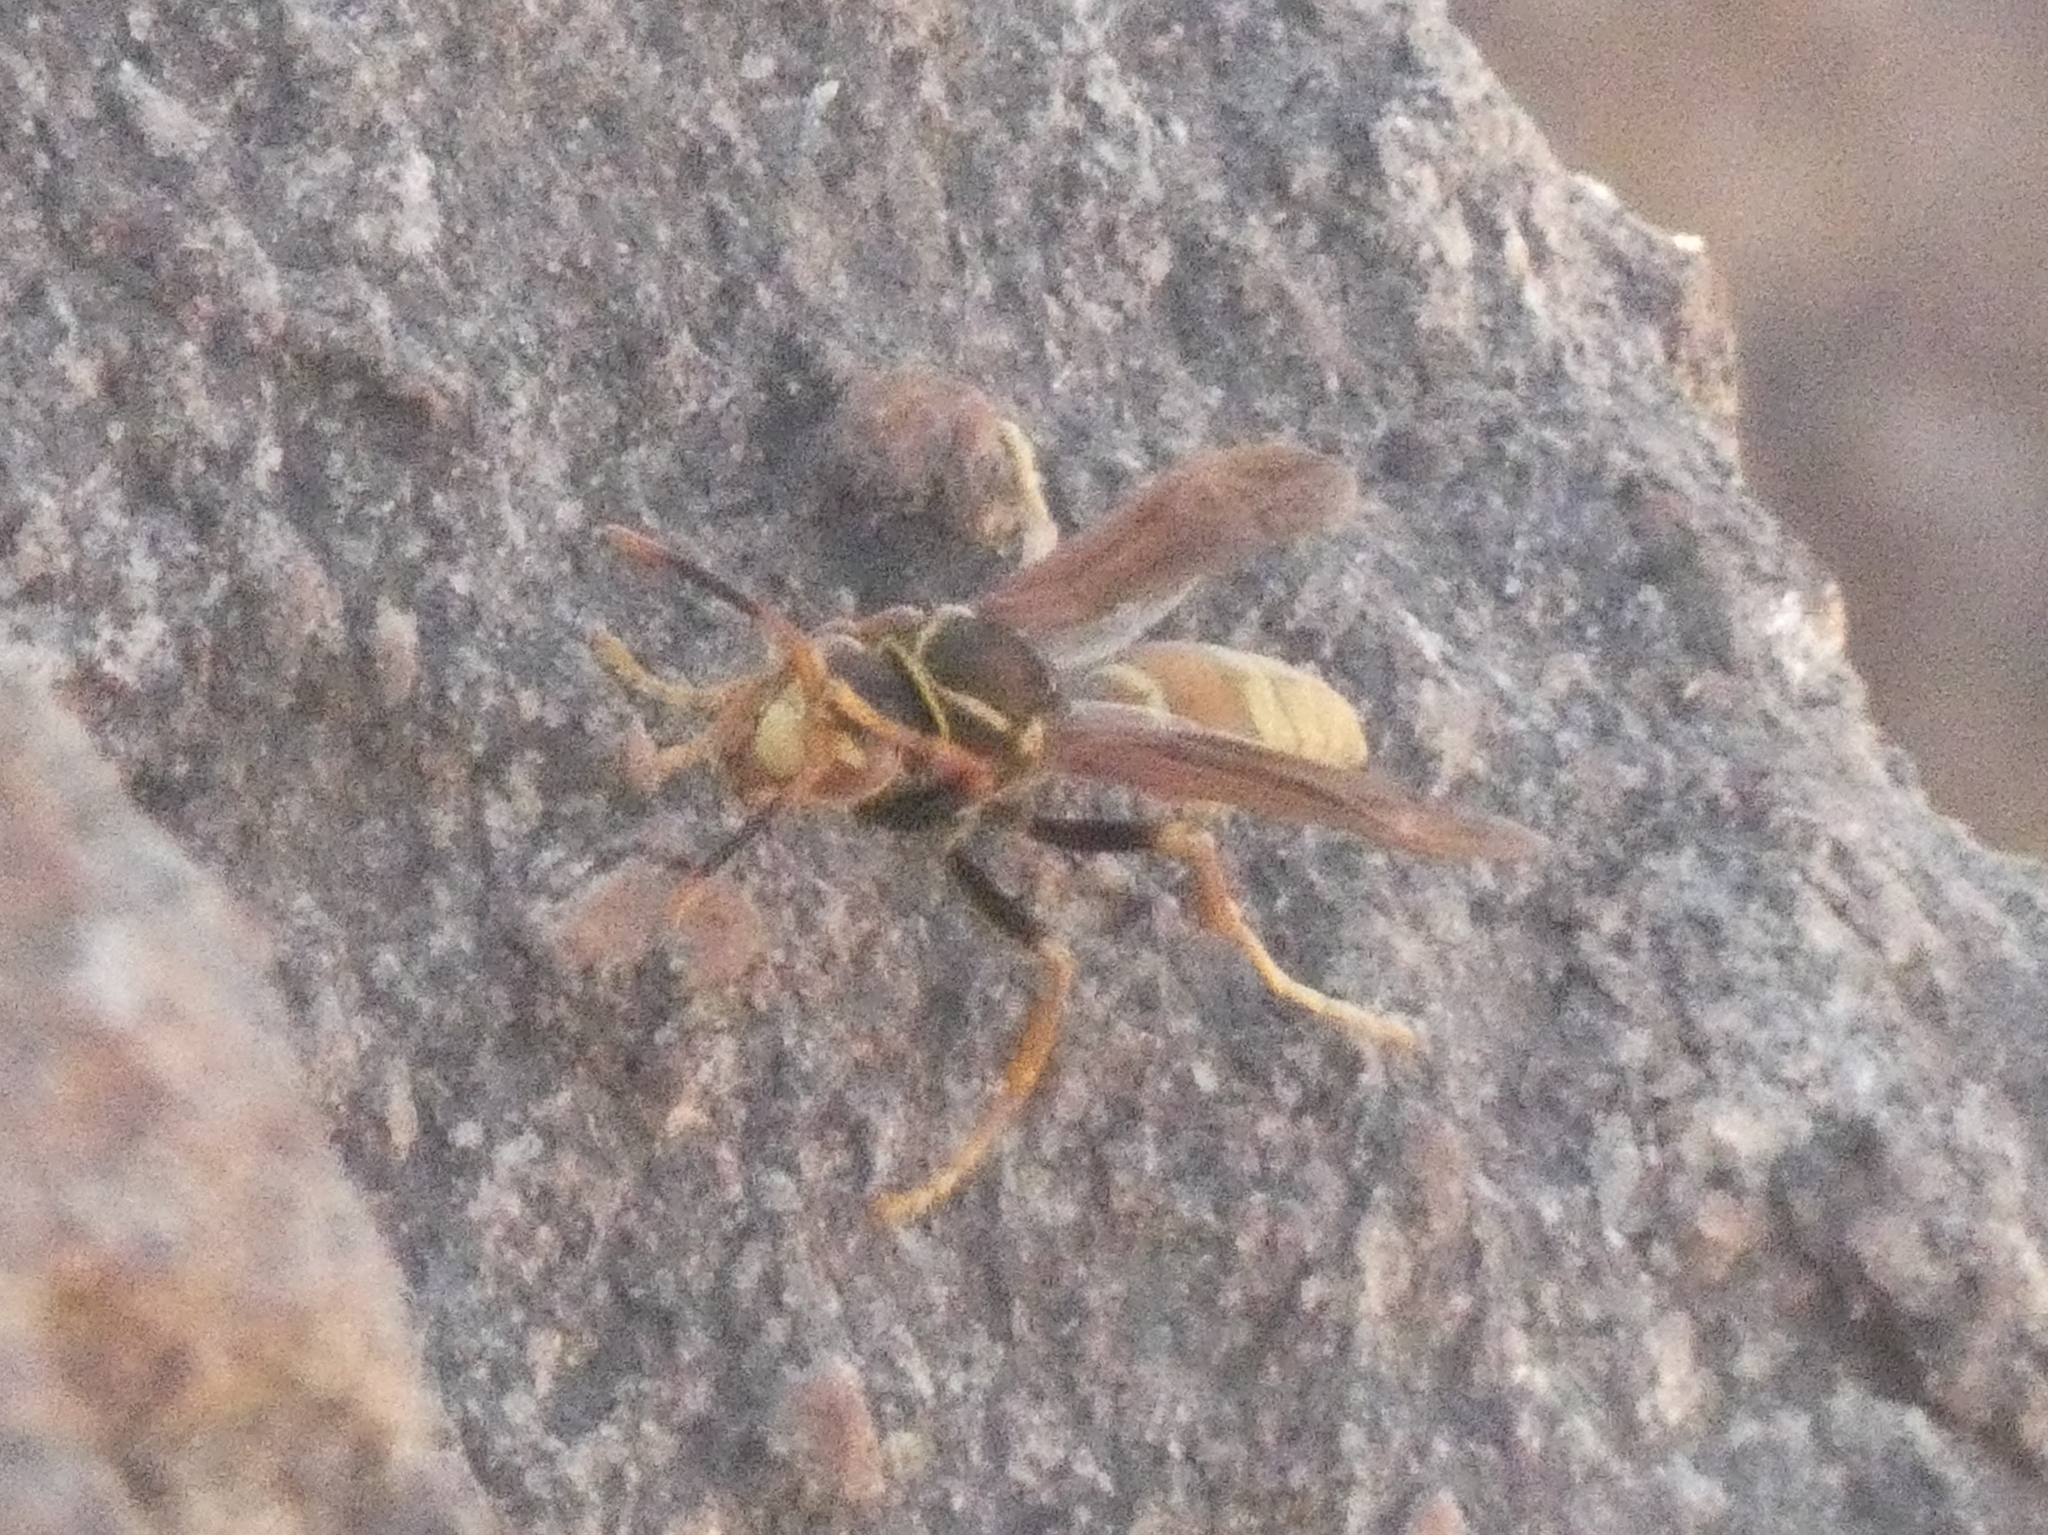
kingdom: Animalia
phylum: Arthropoda
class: Insecta
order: Hymenoptera
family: Eumenidae
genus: Polistes
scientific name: Polistes buyssoni
